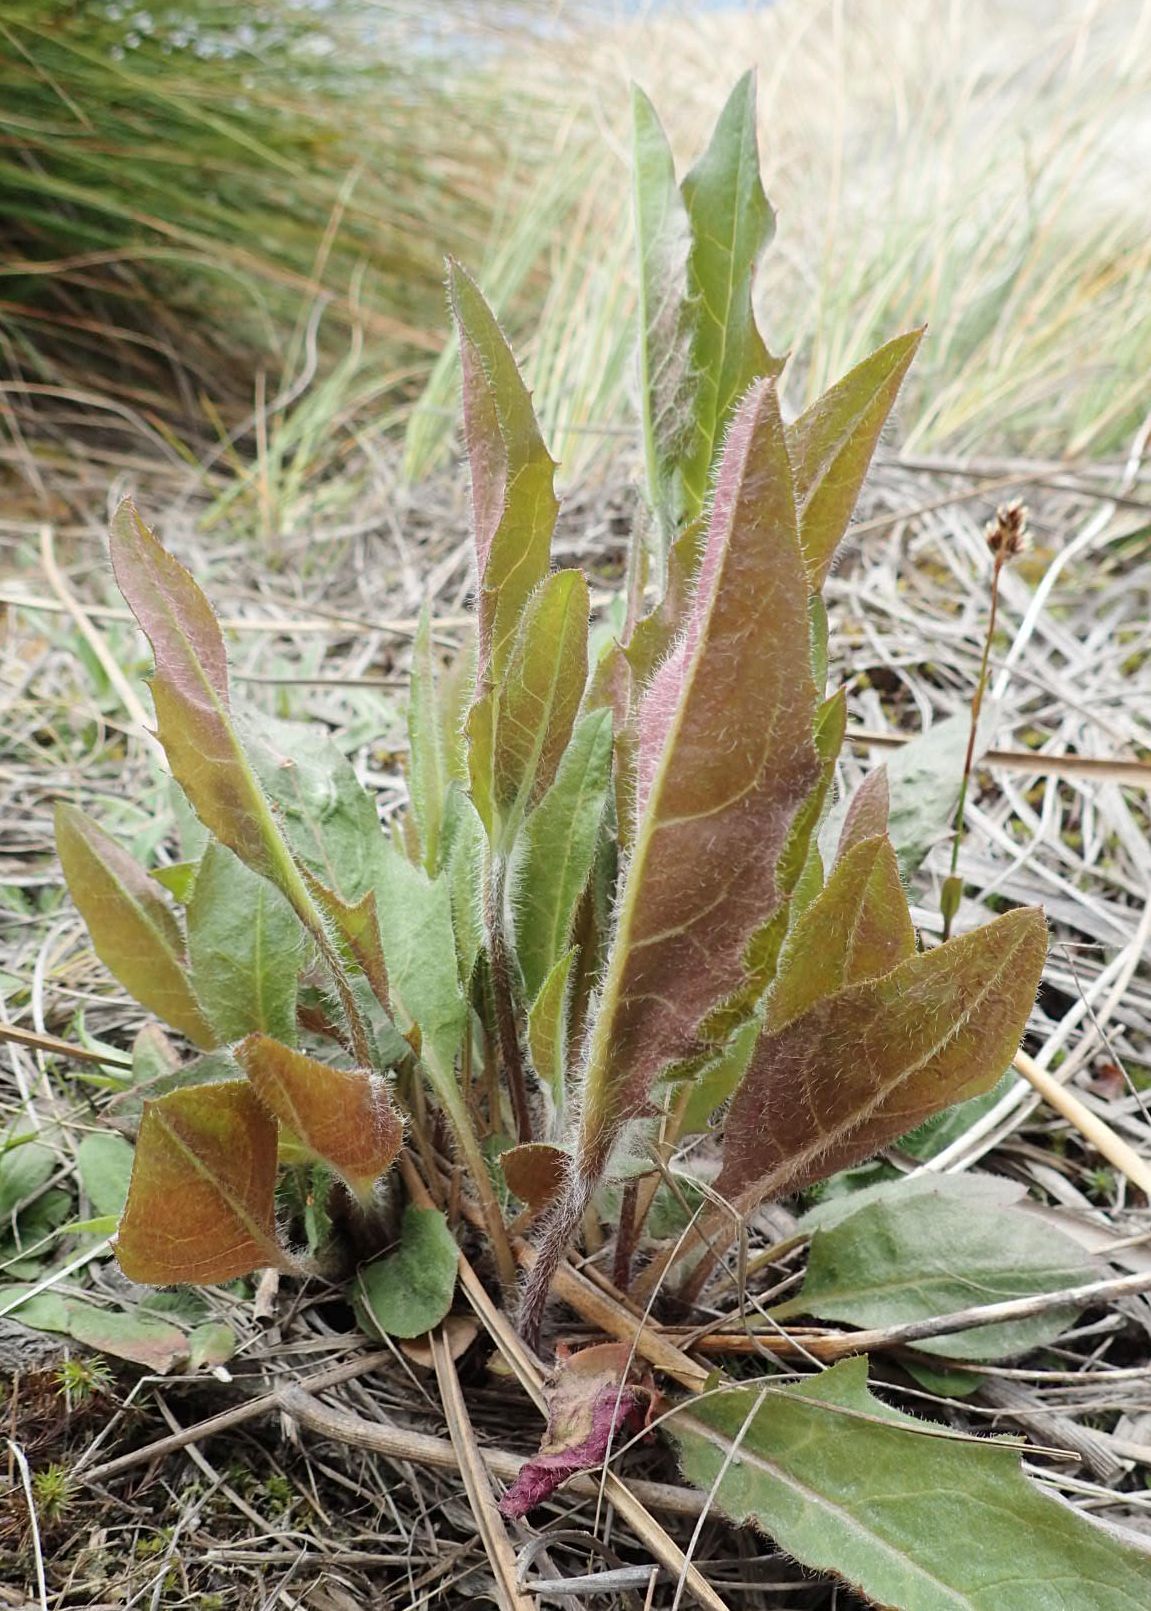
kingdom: Plantae
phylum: Tracheophyta
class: Magnoliopsida
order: Asterales
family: Asteraceae
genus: Hieracium
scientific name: Hieracium lepidulum
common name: Irregular-toothed hawkweed
